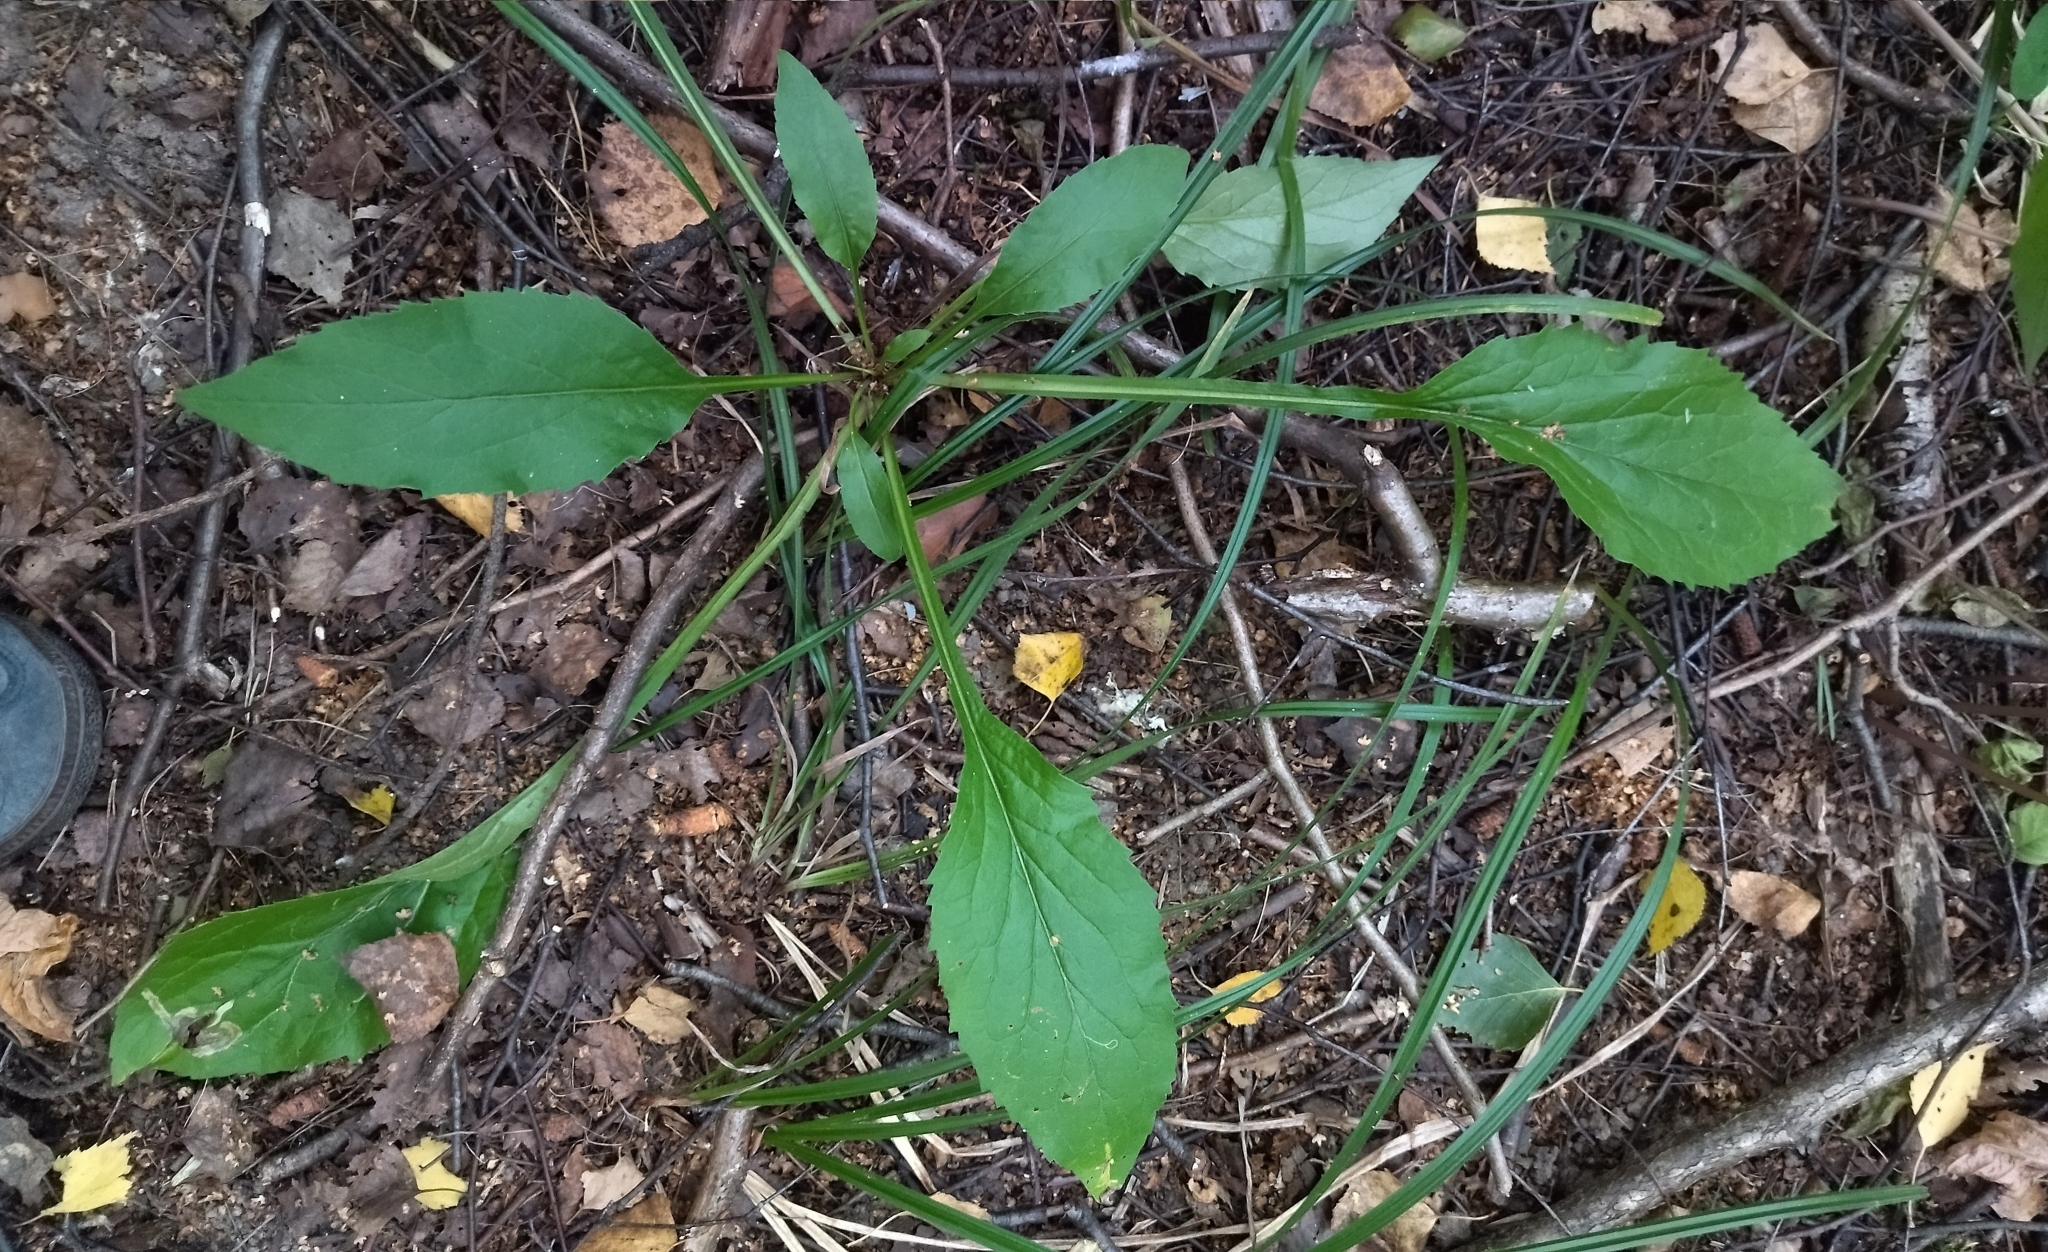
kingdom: Plantae
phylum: Tracheophyta
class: Magnoliopsida
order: Asterales
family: Asteraceae
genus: Solidago
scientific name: Solidago virgaurea
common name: Goldenrod
